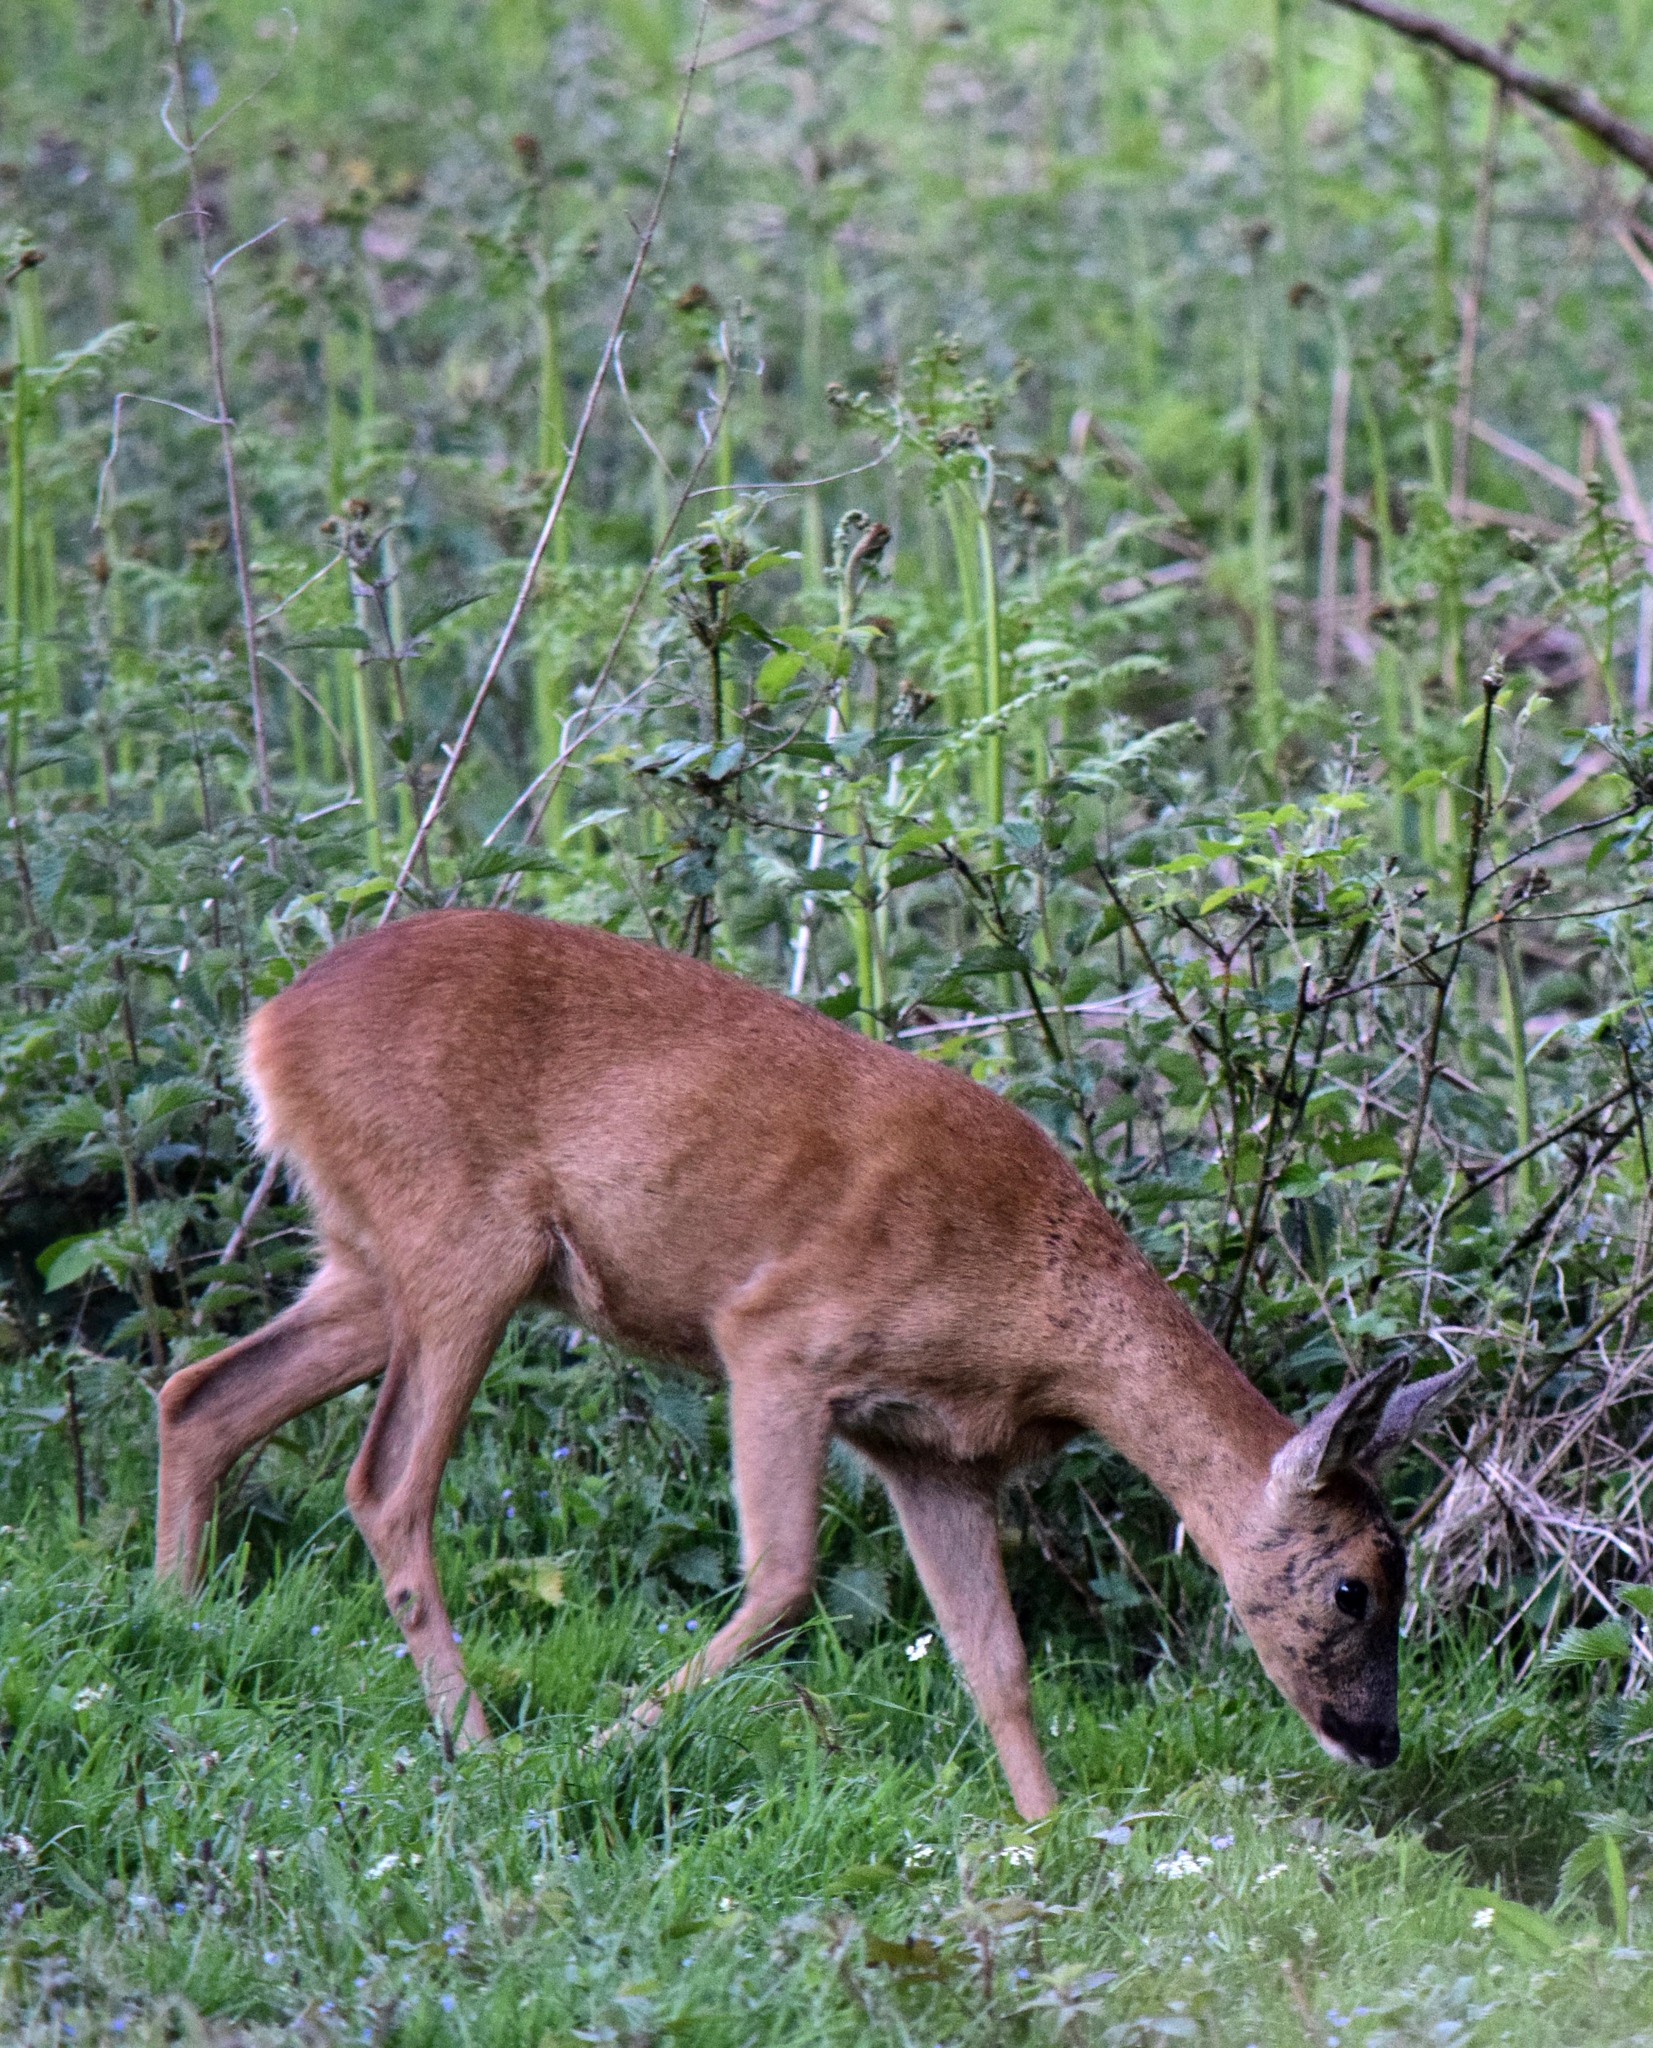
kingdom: Animalia
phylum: Chordata
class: Mammalia
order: Artiodactyla
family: Cervidae
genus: Capreolus
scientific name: Capreolus capreolus
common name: Western roe deer
